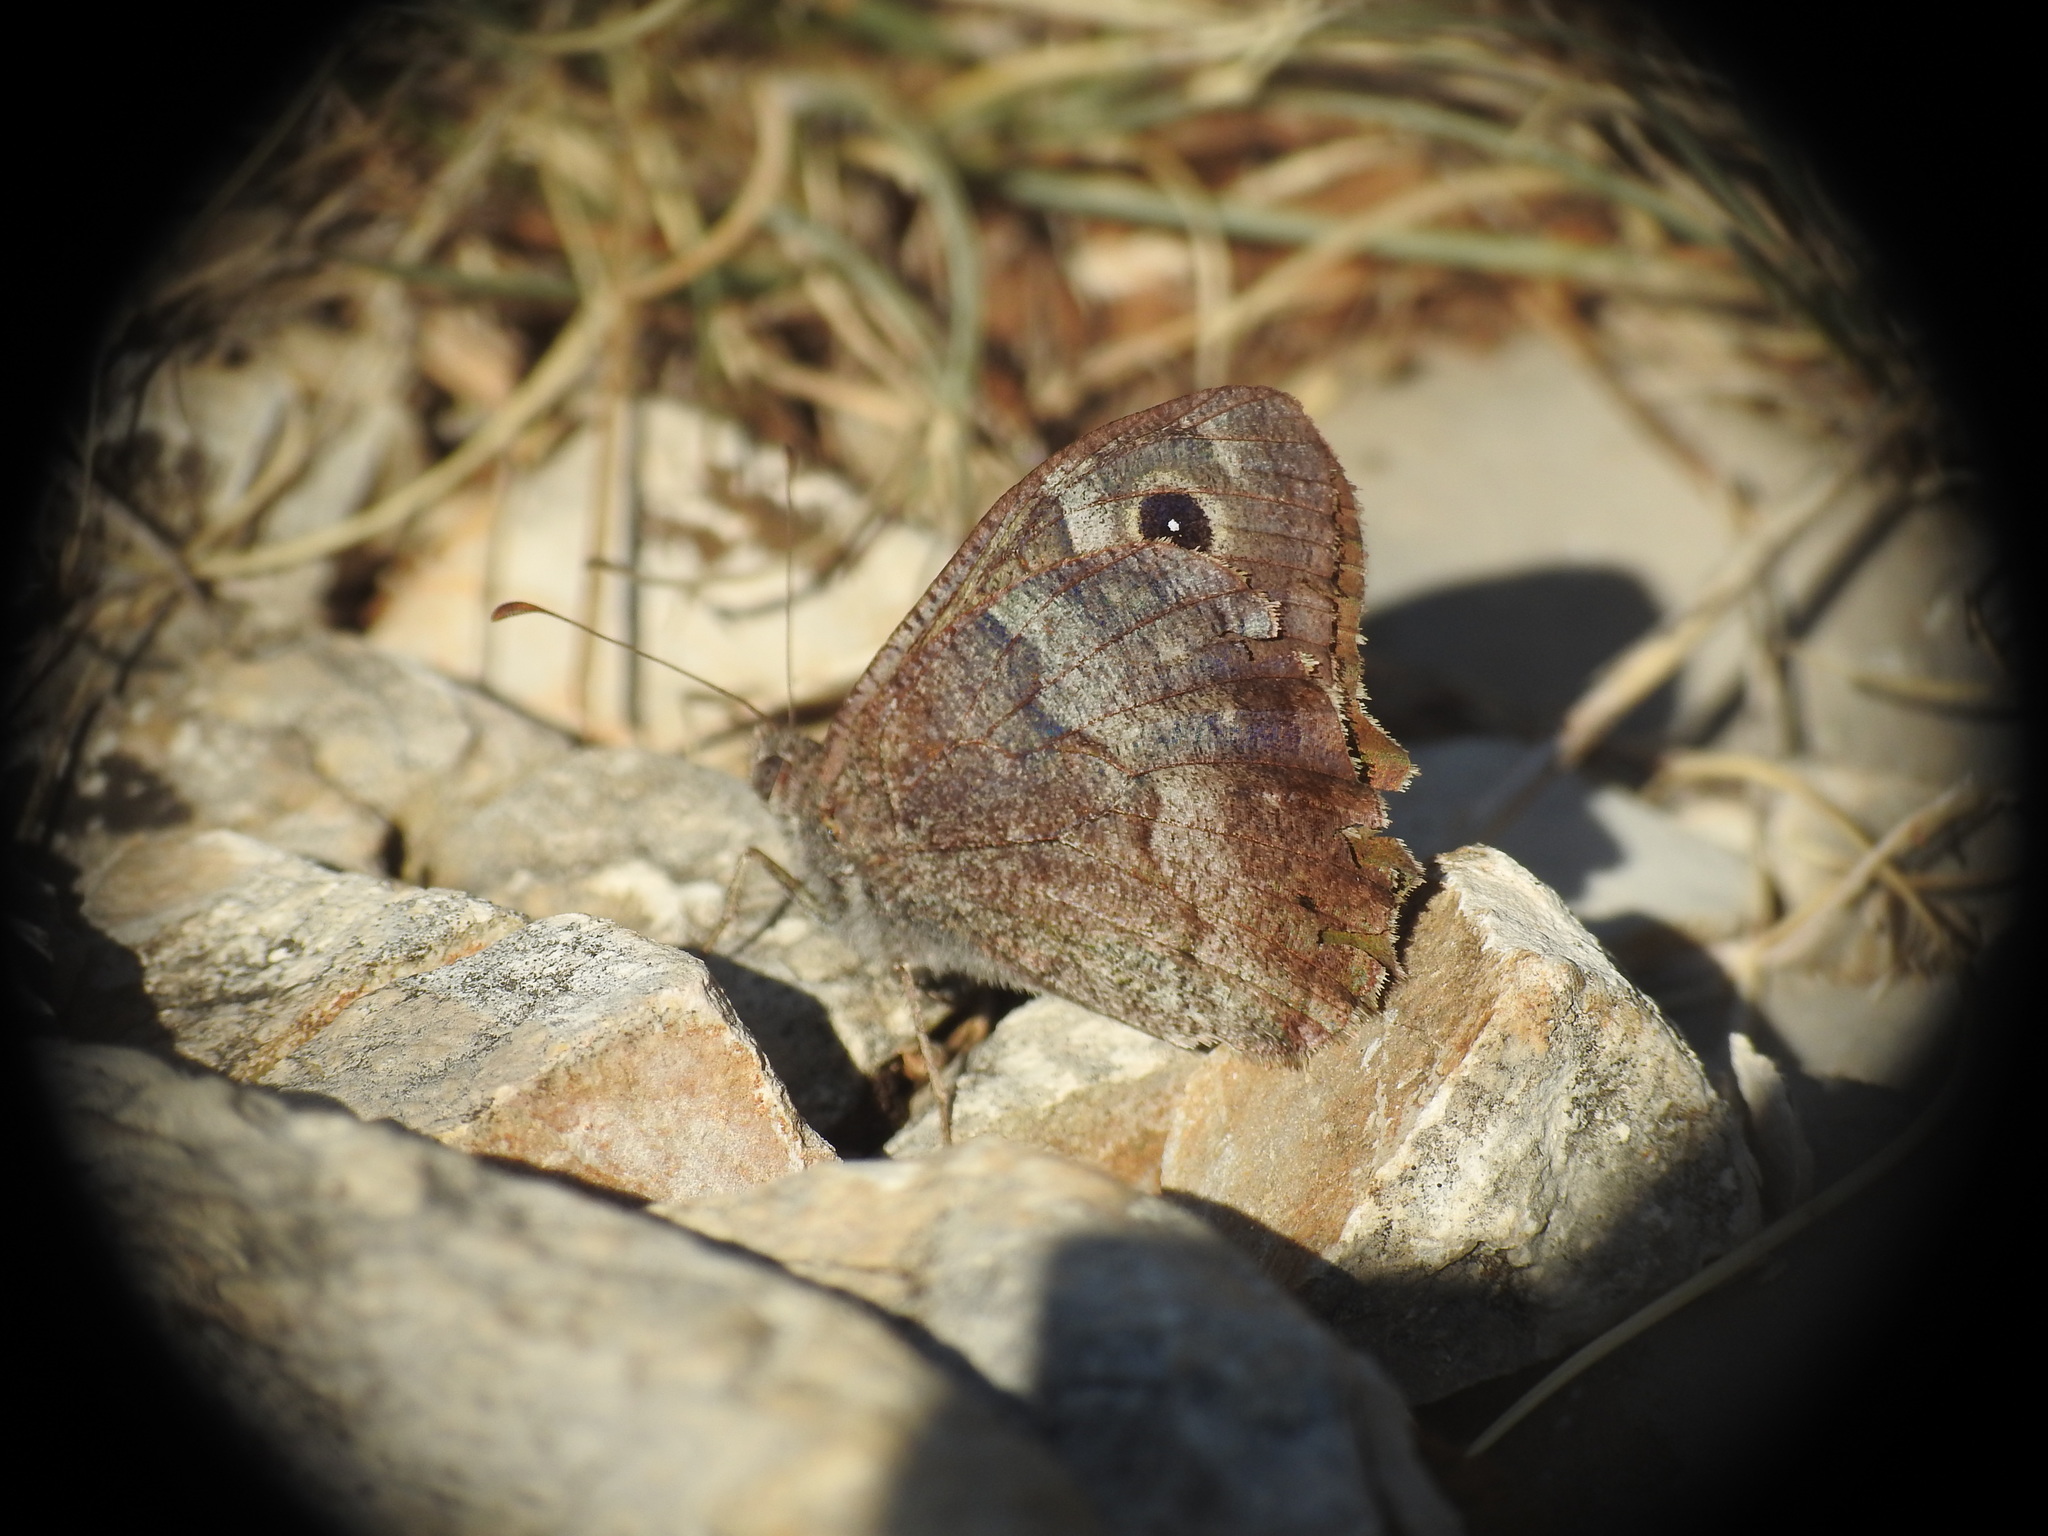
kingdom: Animalia
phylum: Arthropoda
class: Insecta
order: Lepidoptera
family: Nymphalidae
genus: Hipparchia
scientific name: Hipparchia statilinus
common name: Tree grayling
